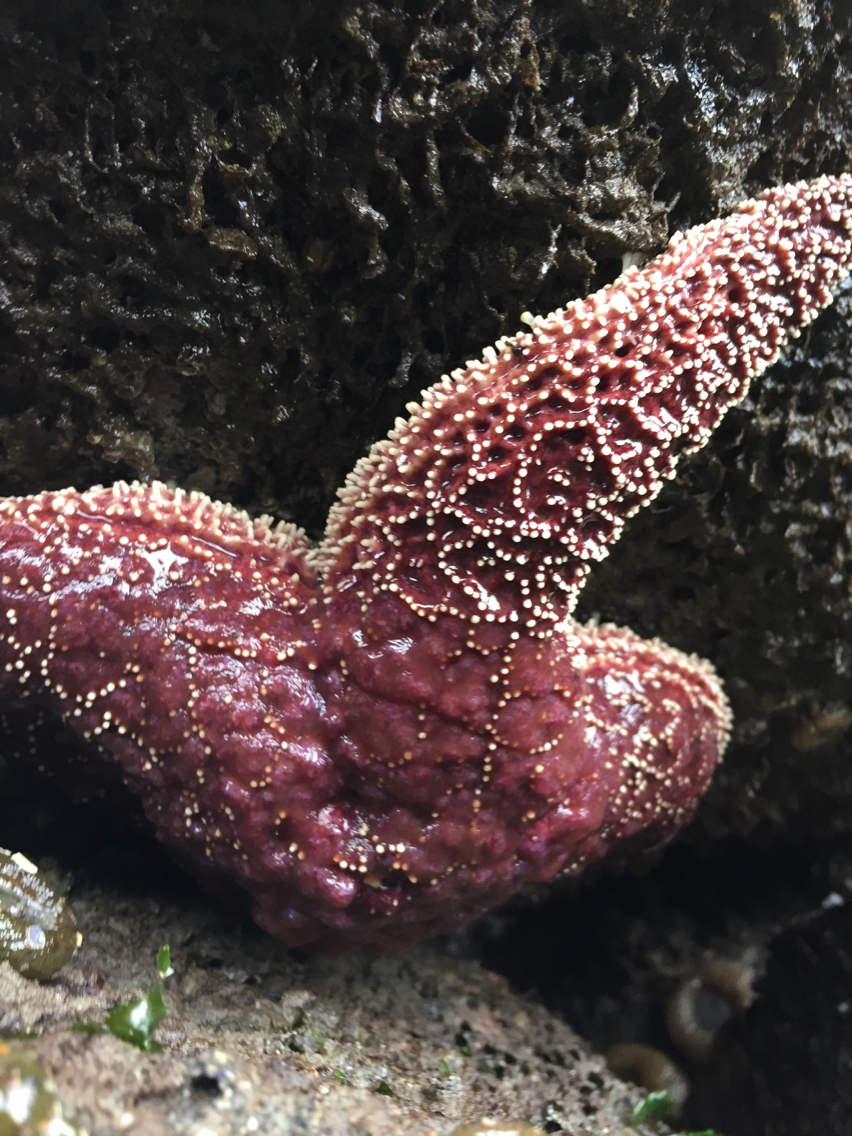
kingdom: Animalia
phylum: Echinodermata
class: Asteroidea
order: Forcipulatida
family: Asteriidae
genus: Pisaster
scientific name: Pisaster ochraceus
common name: Ochre stars
